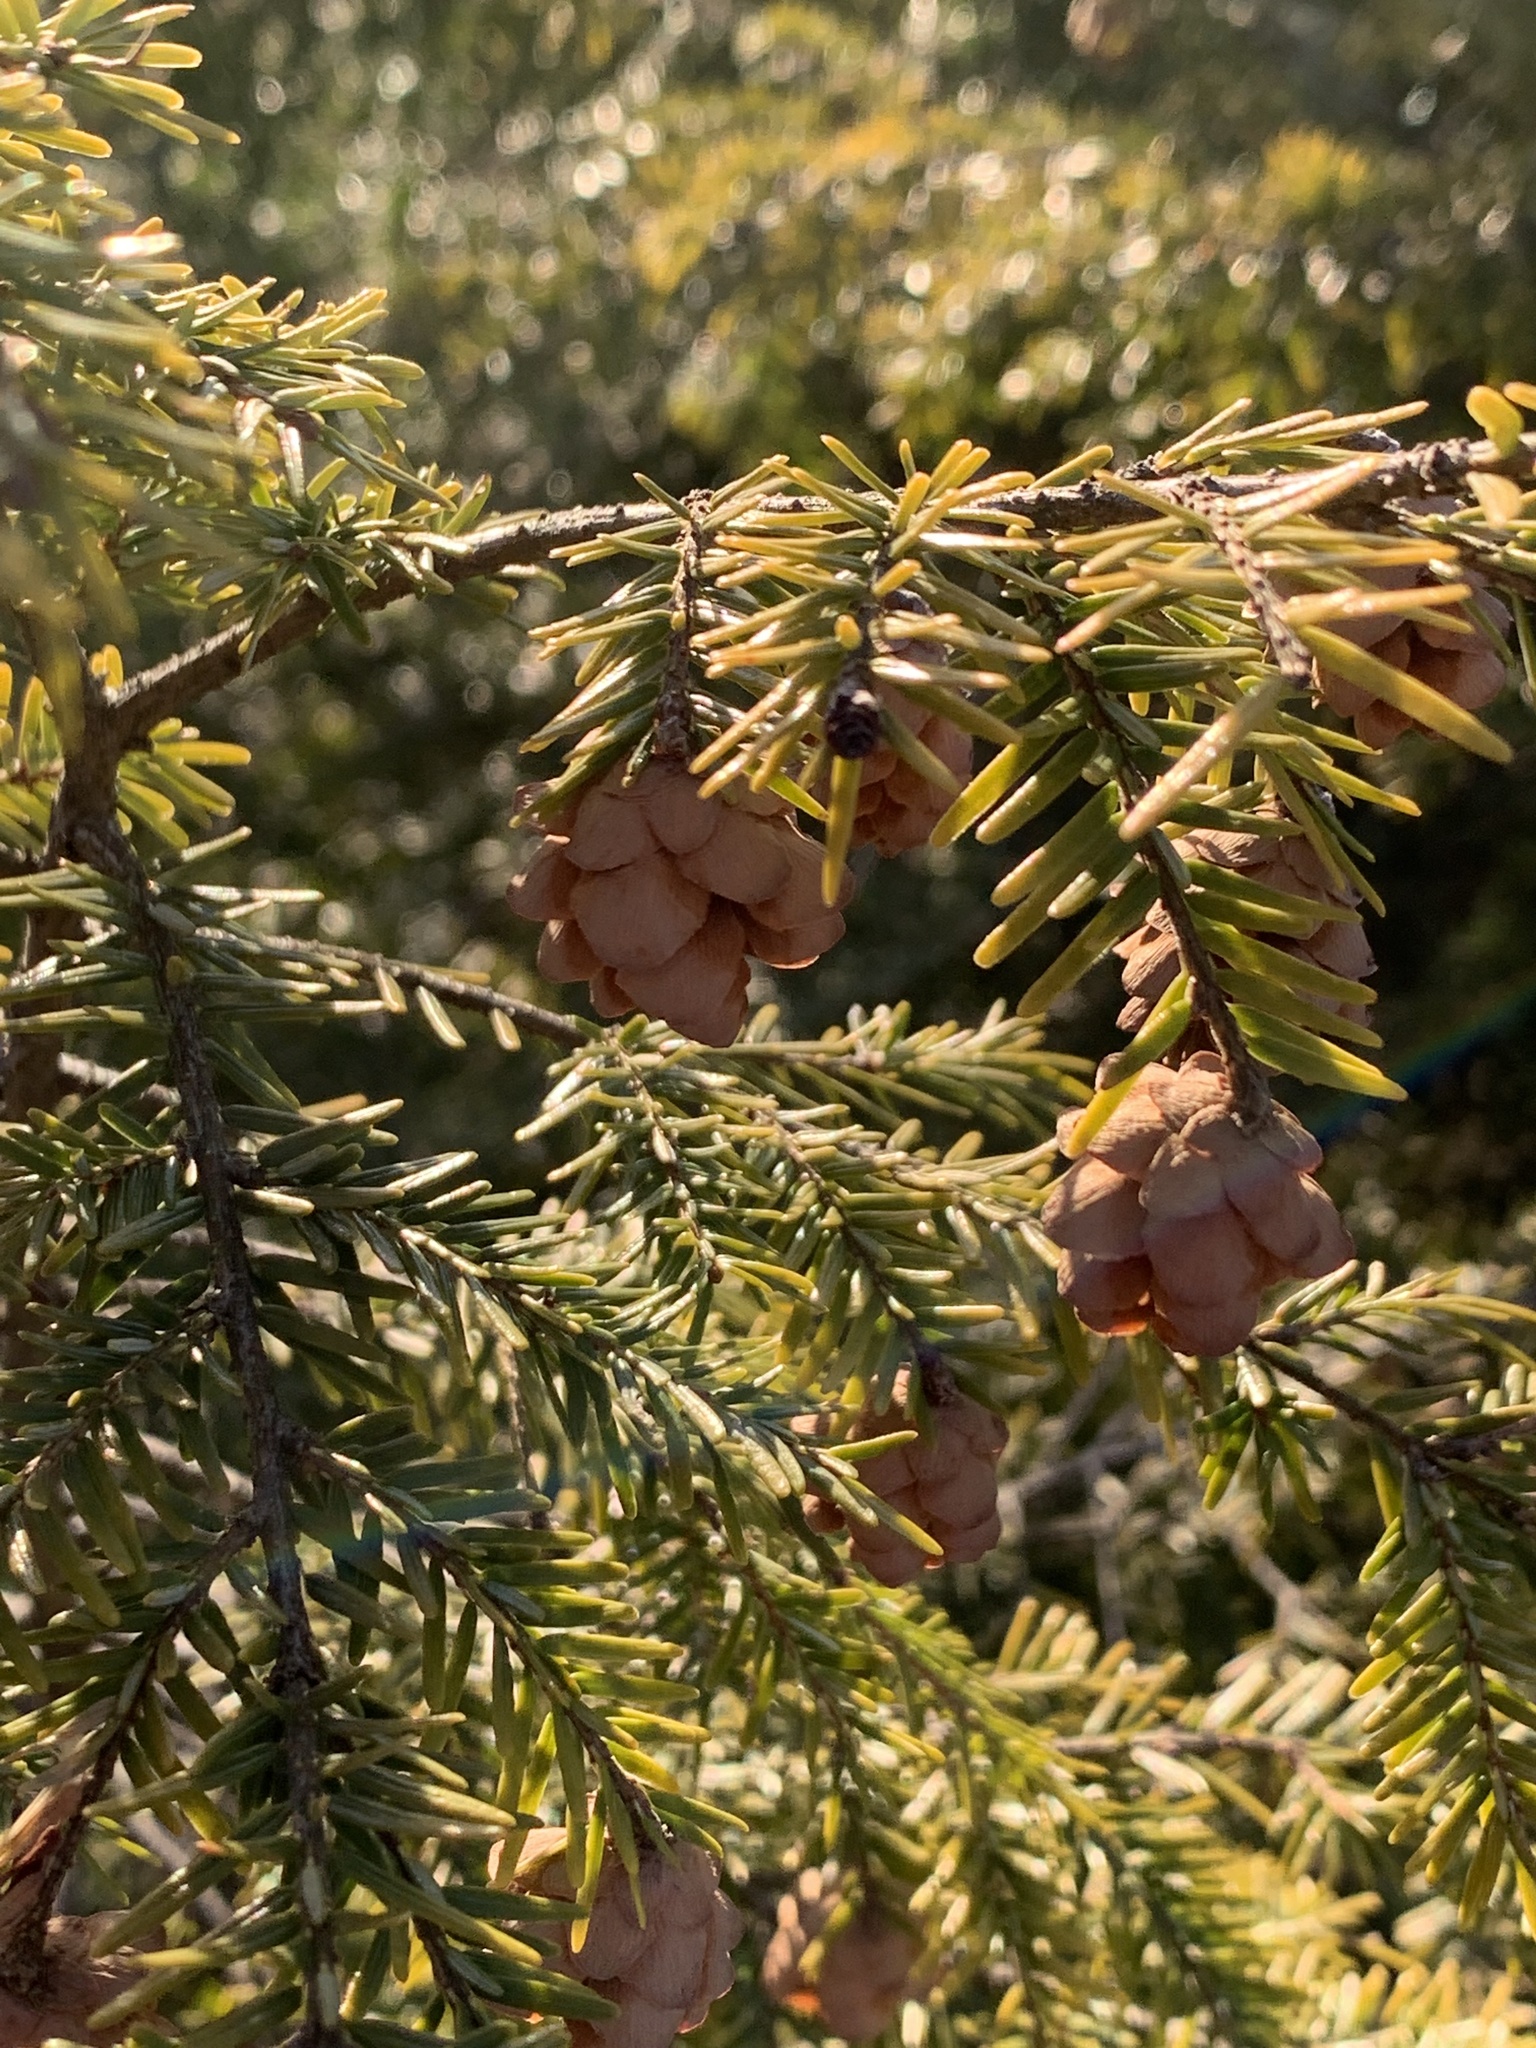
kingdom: Plantae
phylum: Tracheophyta
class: Pinopsida
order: Pinales
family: Pinaceae
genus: Tsuga
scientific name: Tsuga canadensis
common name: Eastern hemlock
